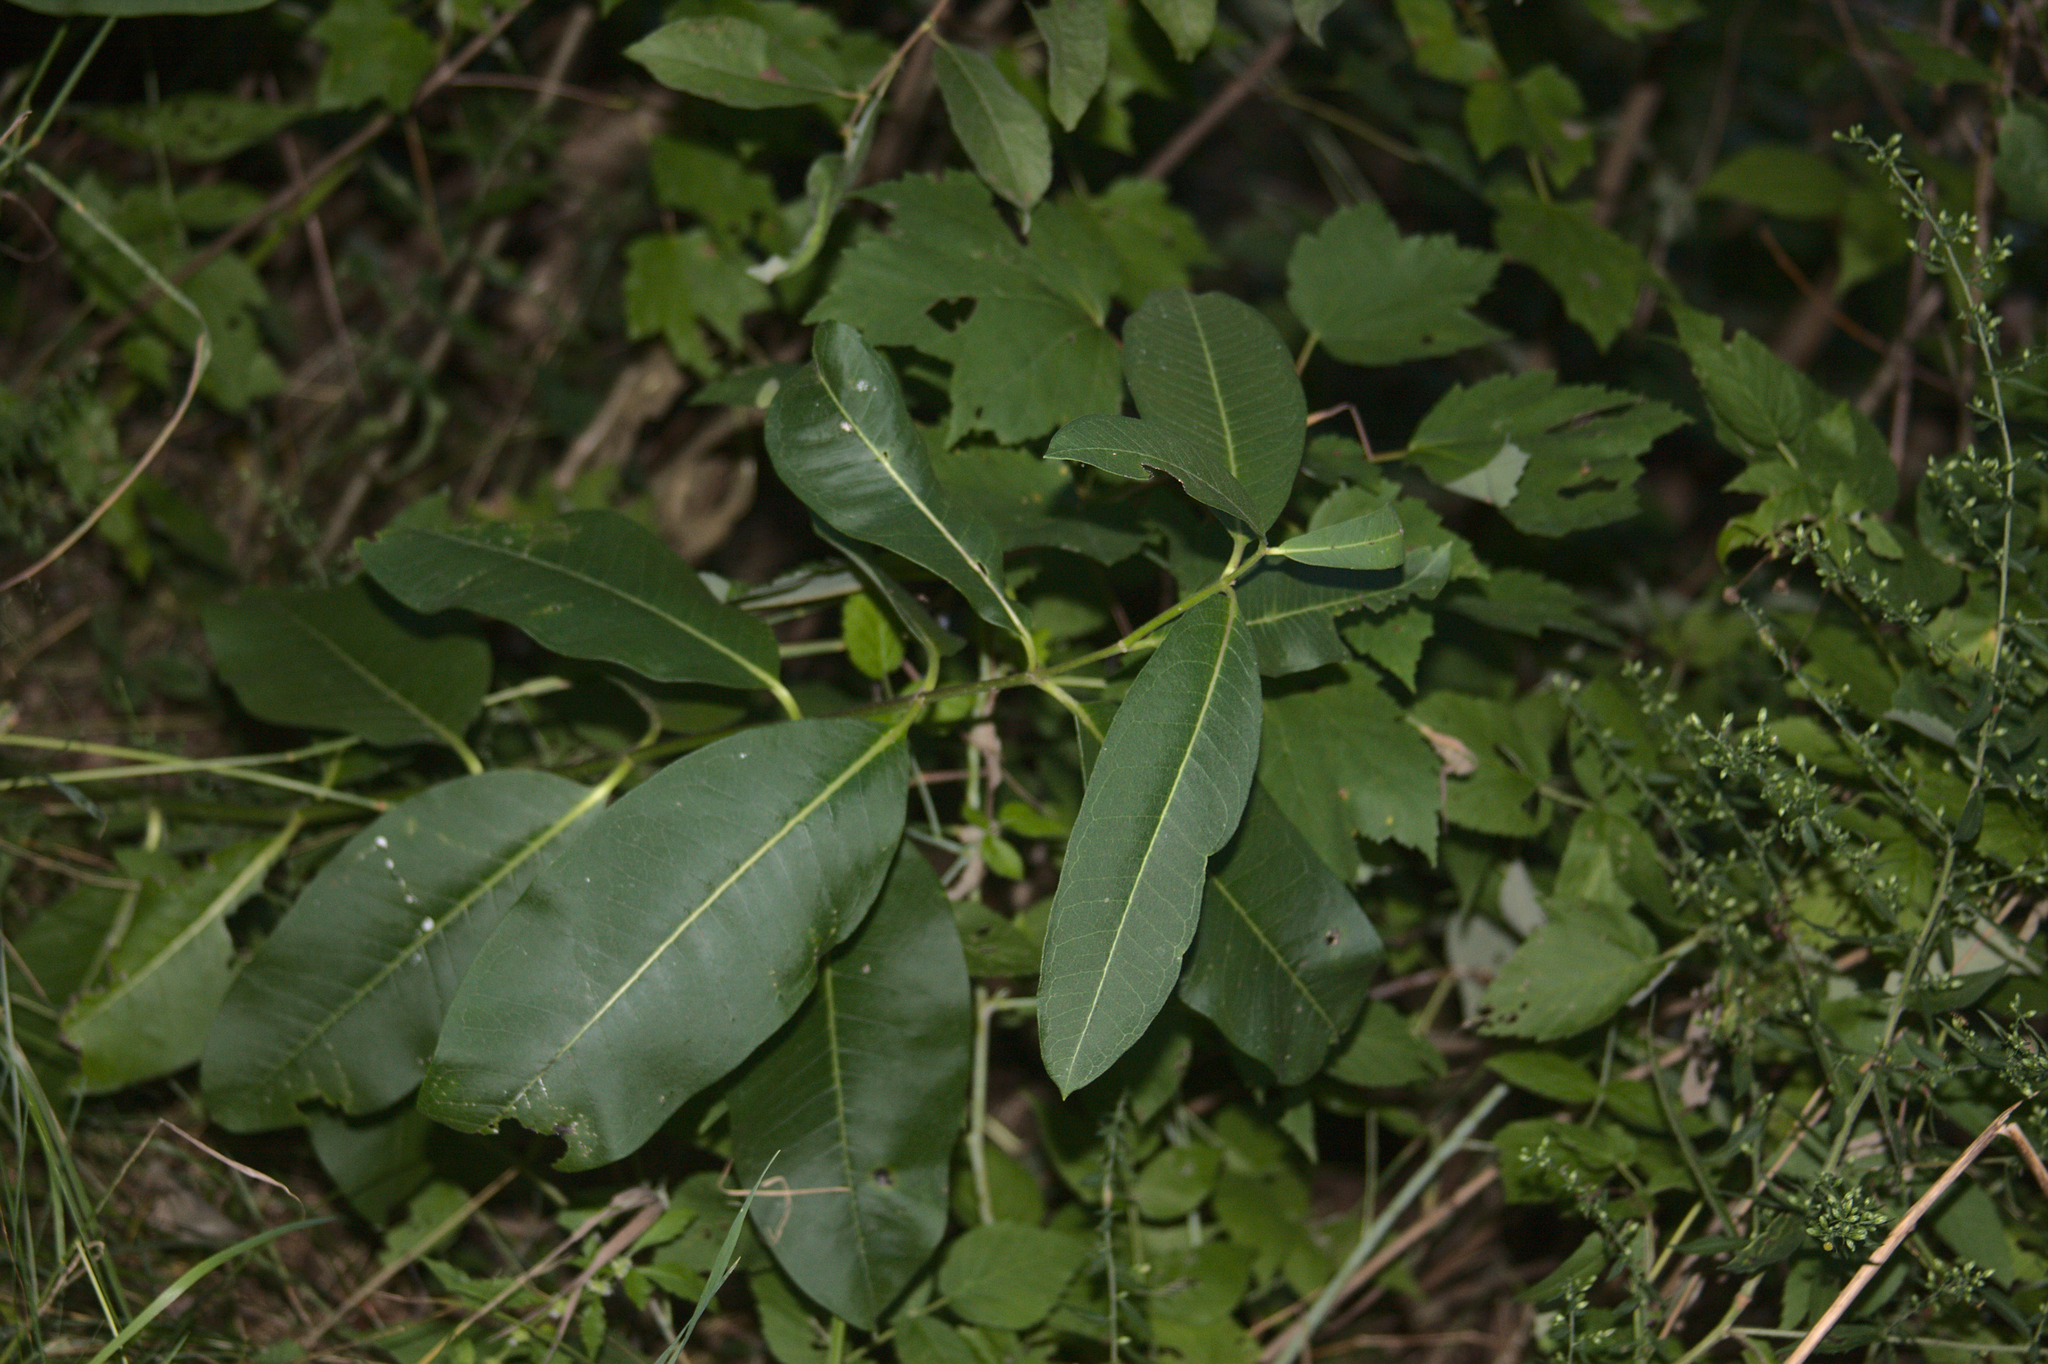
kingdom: Plantae
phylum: Tracheophyta
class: Magnoliopsida
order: Gentianales
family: Apocynaceae
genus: Asclepias
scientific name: Asclepias syriaca
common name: Common milkweed
